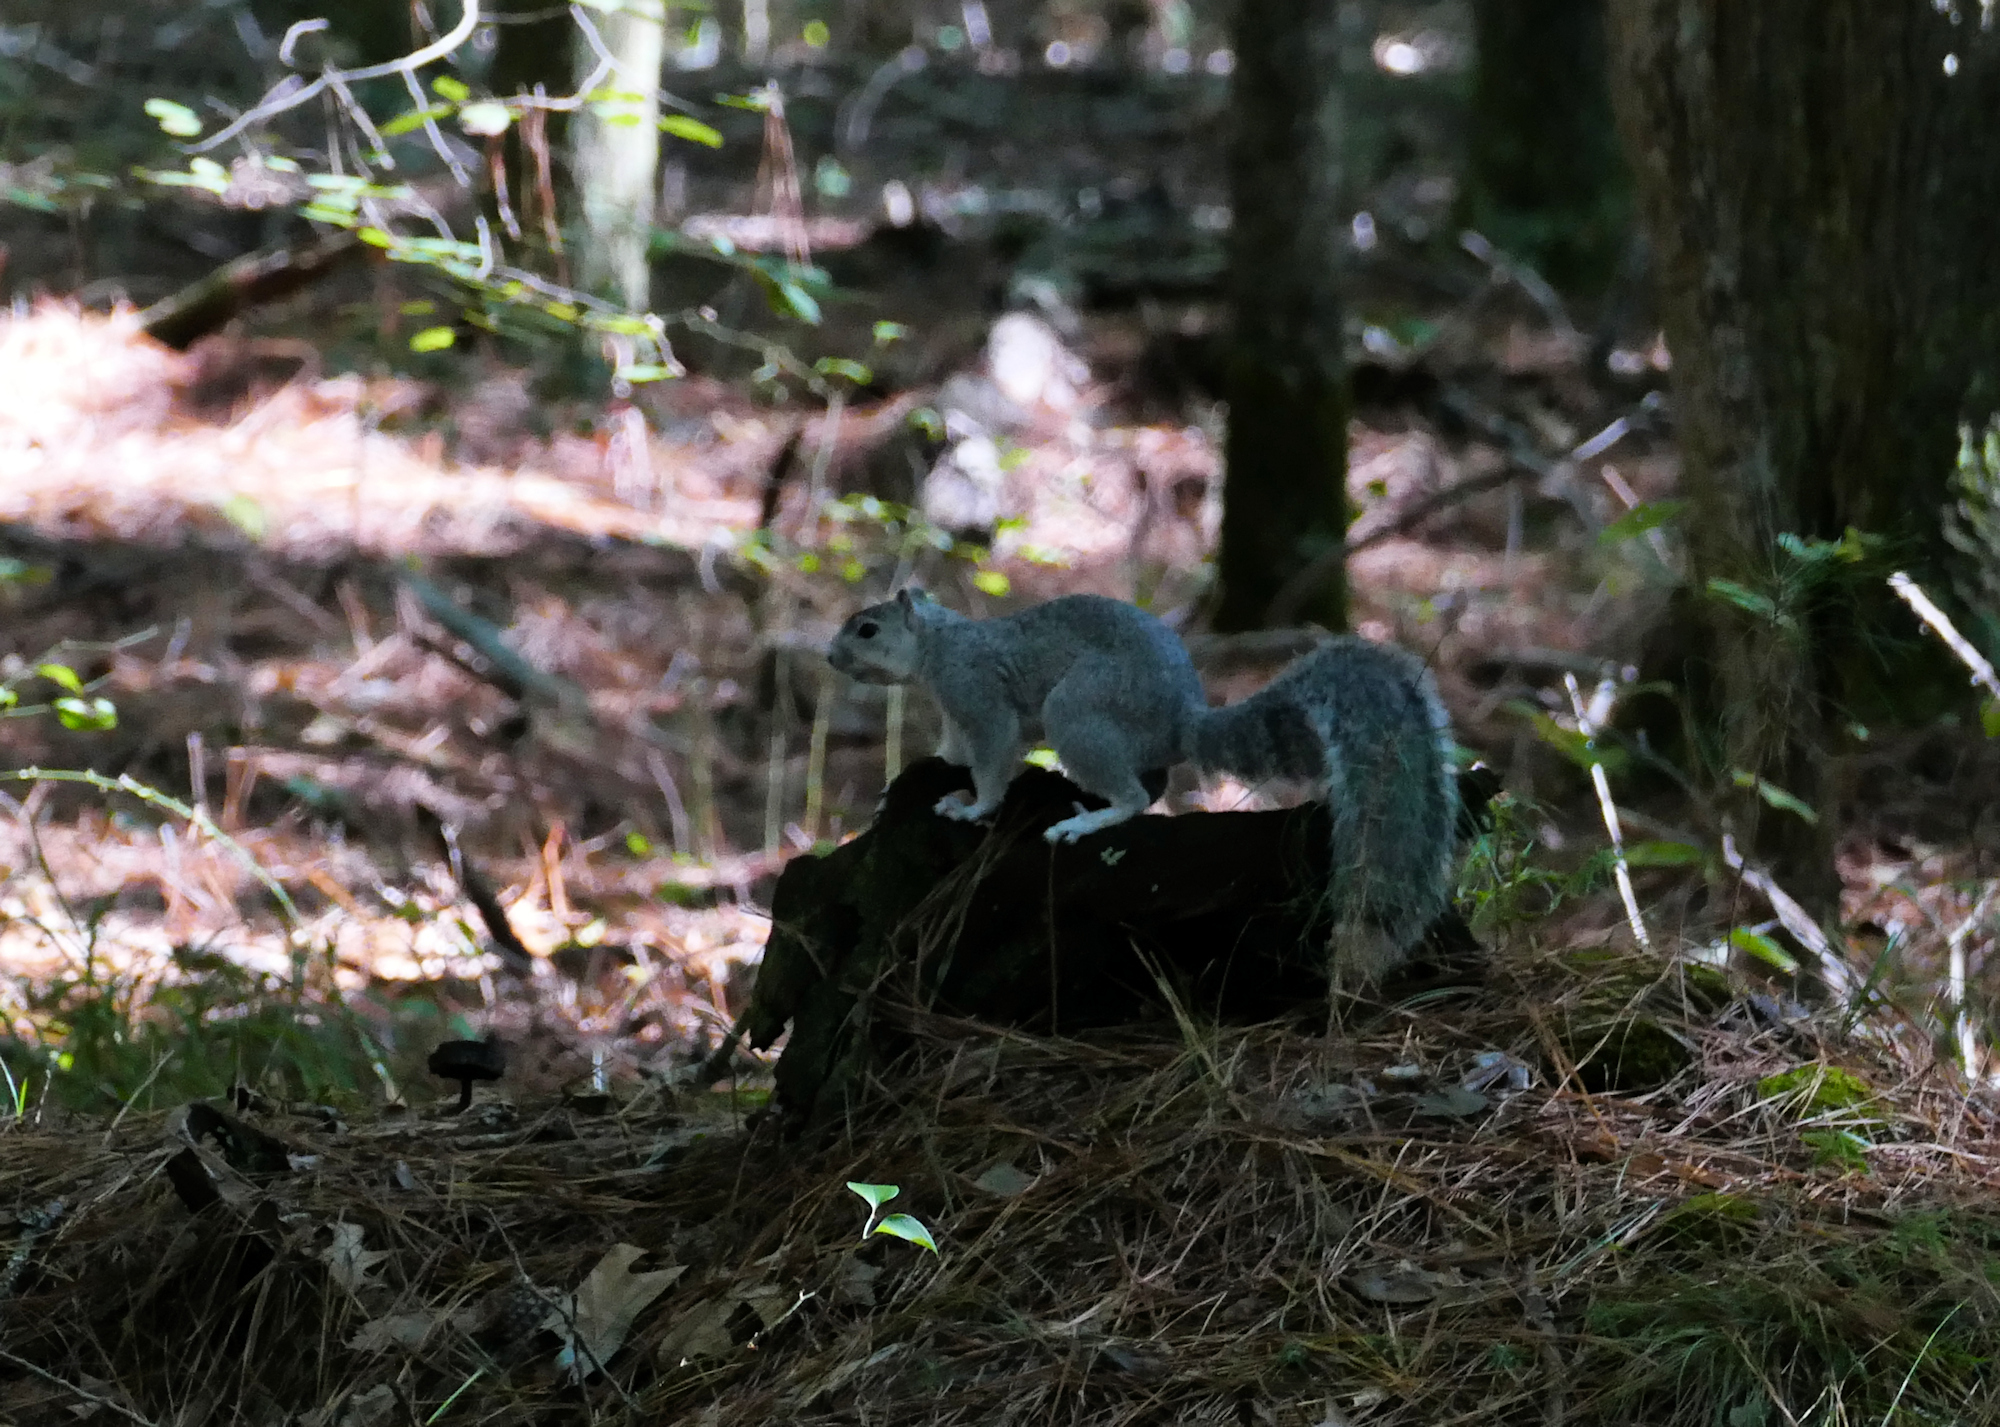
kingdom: Animalia
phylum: Chordata
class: Mammalia
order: Rodentia
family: Sciuridae
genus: Sciurus
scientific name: Sciurus niger
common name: Fox squirrel
